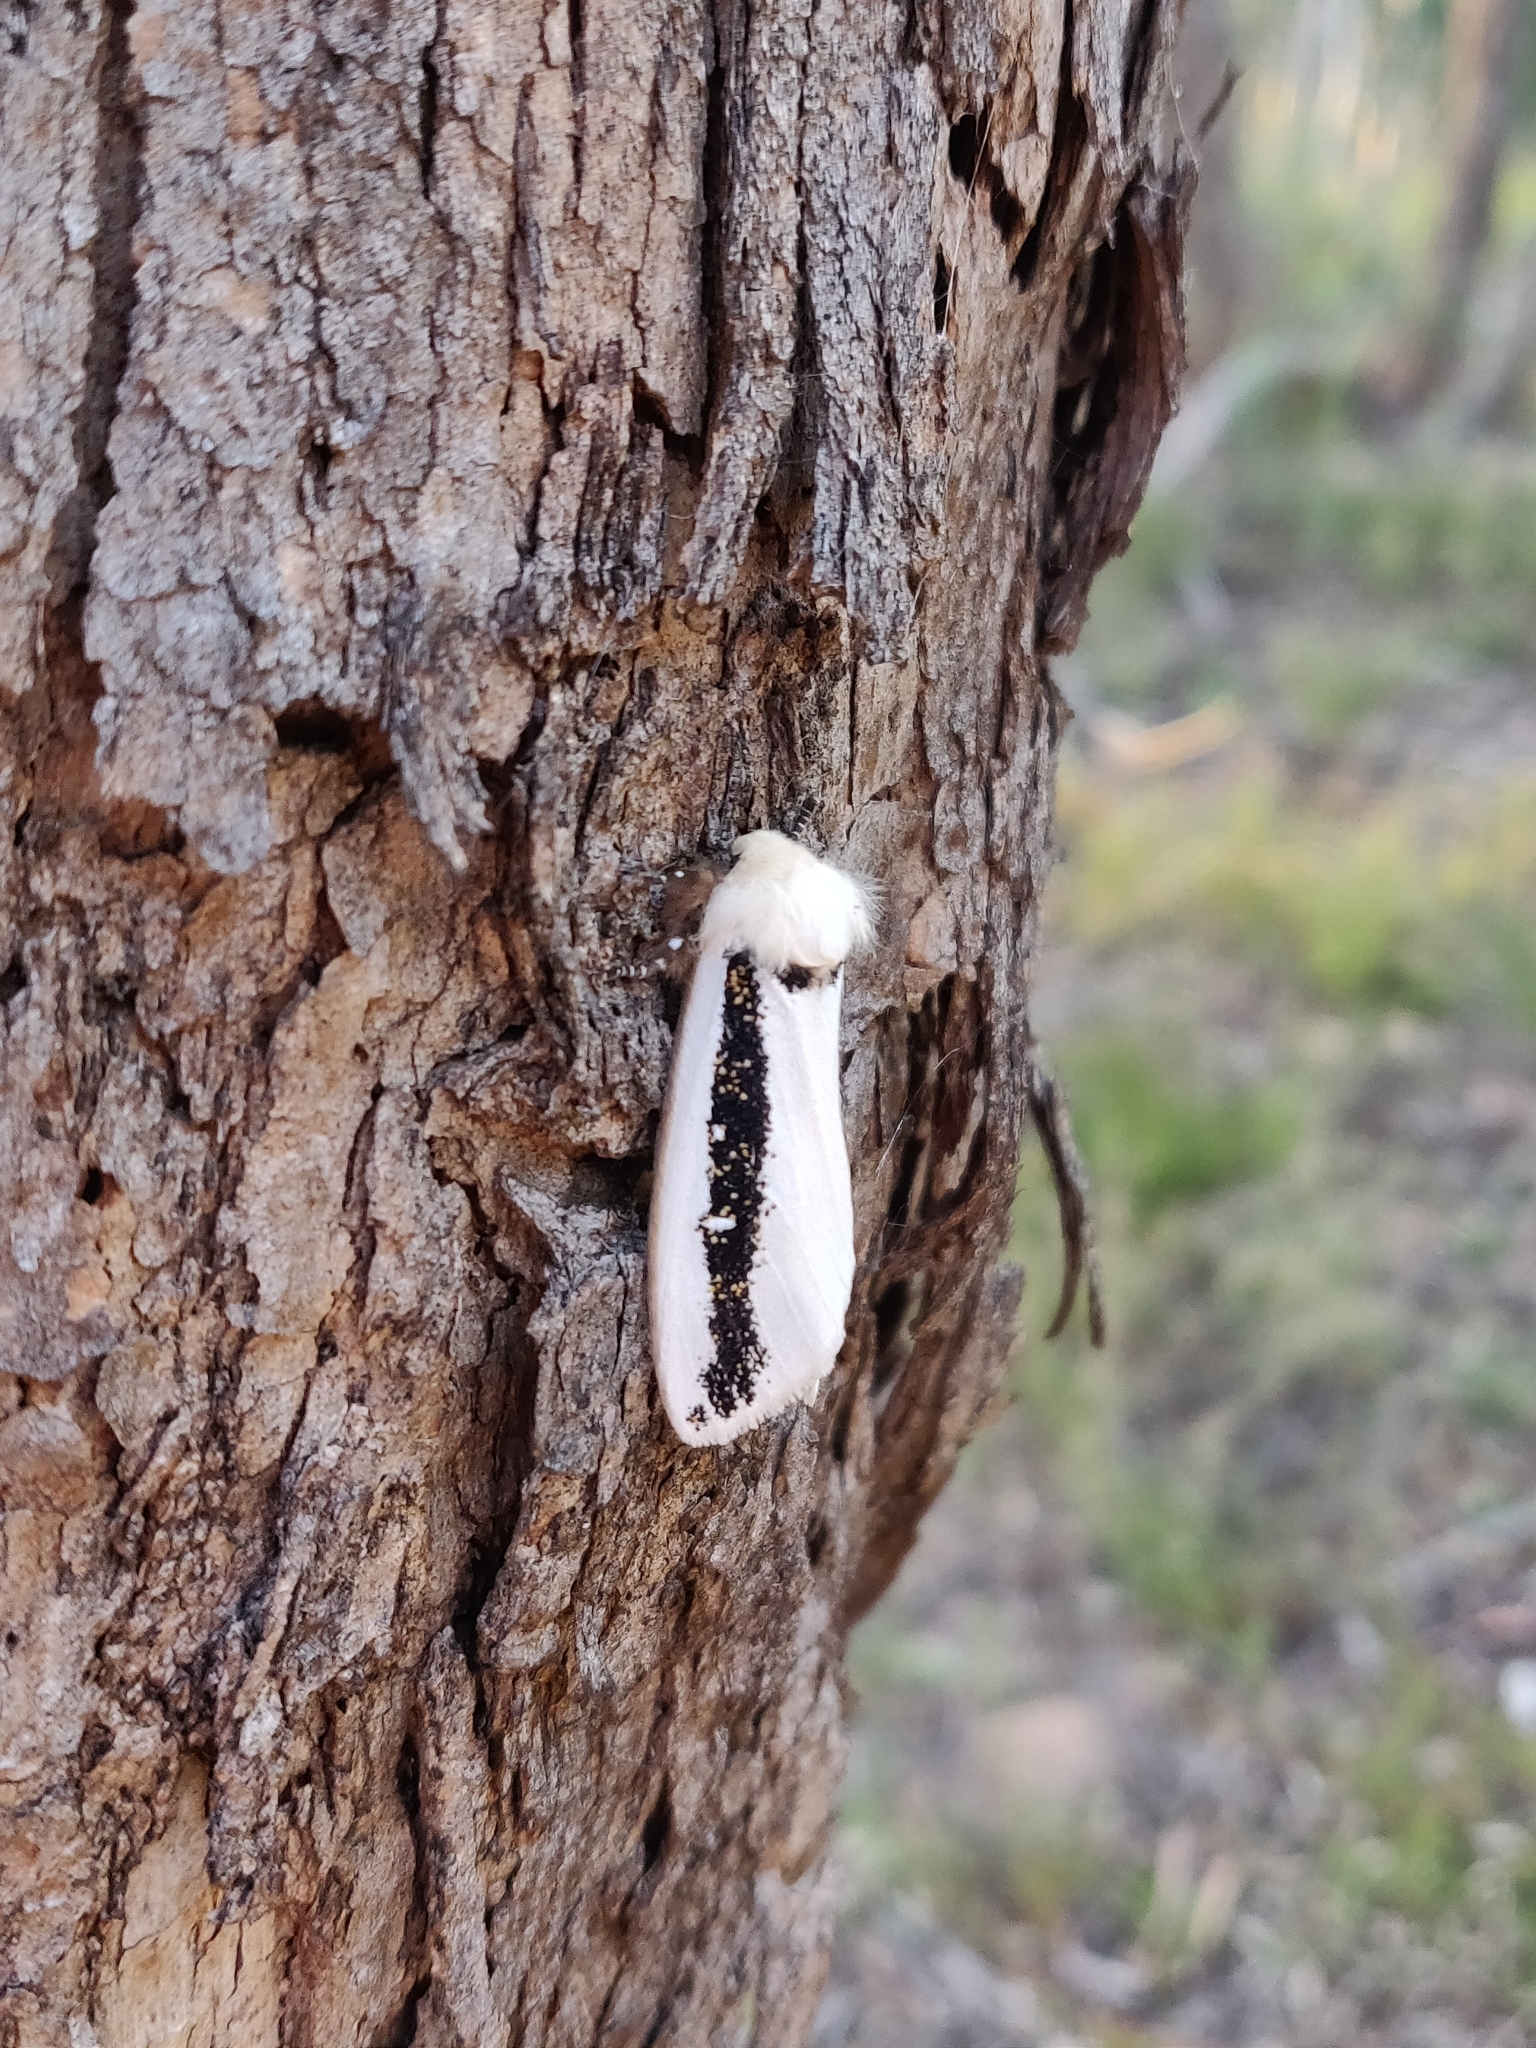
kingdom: Animalia
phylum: Arthropoda
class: Insecta
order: Lepidoptera
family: Oenosandridae
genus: Oenosandra
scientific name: Oenosandra boisduvalii
